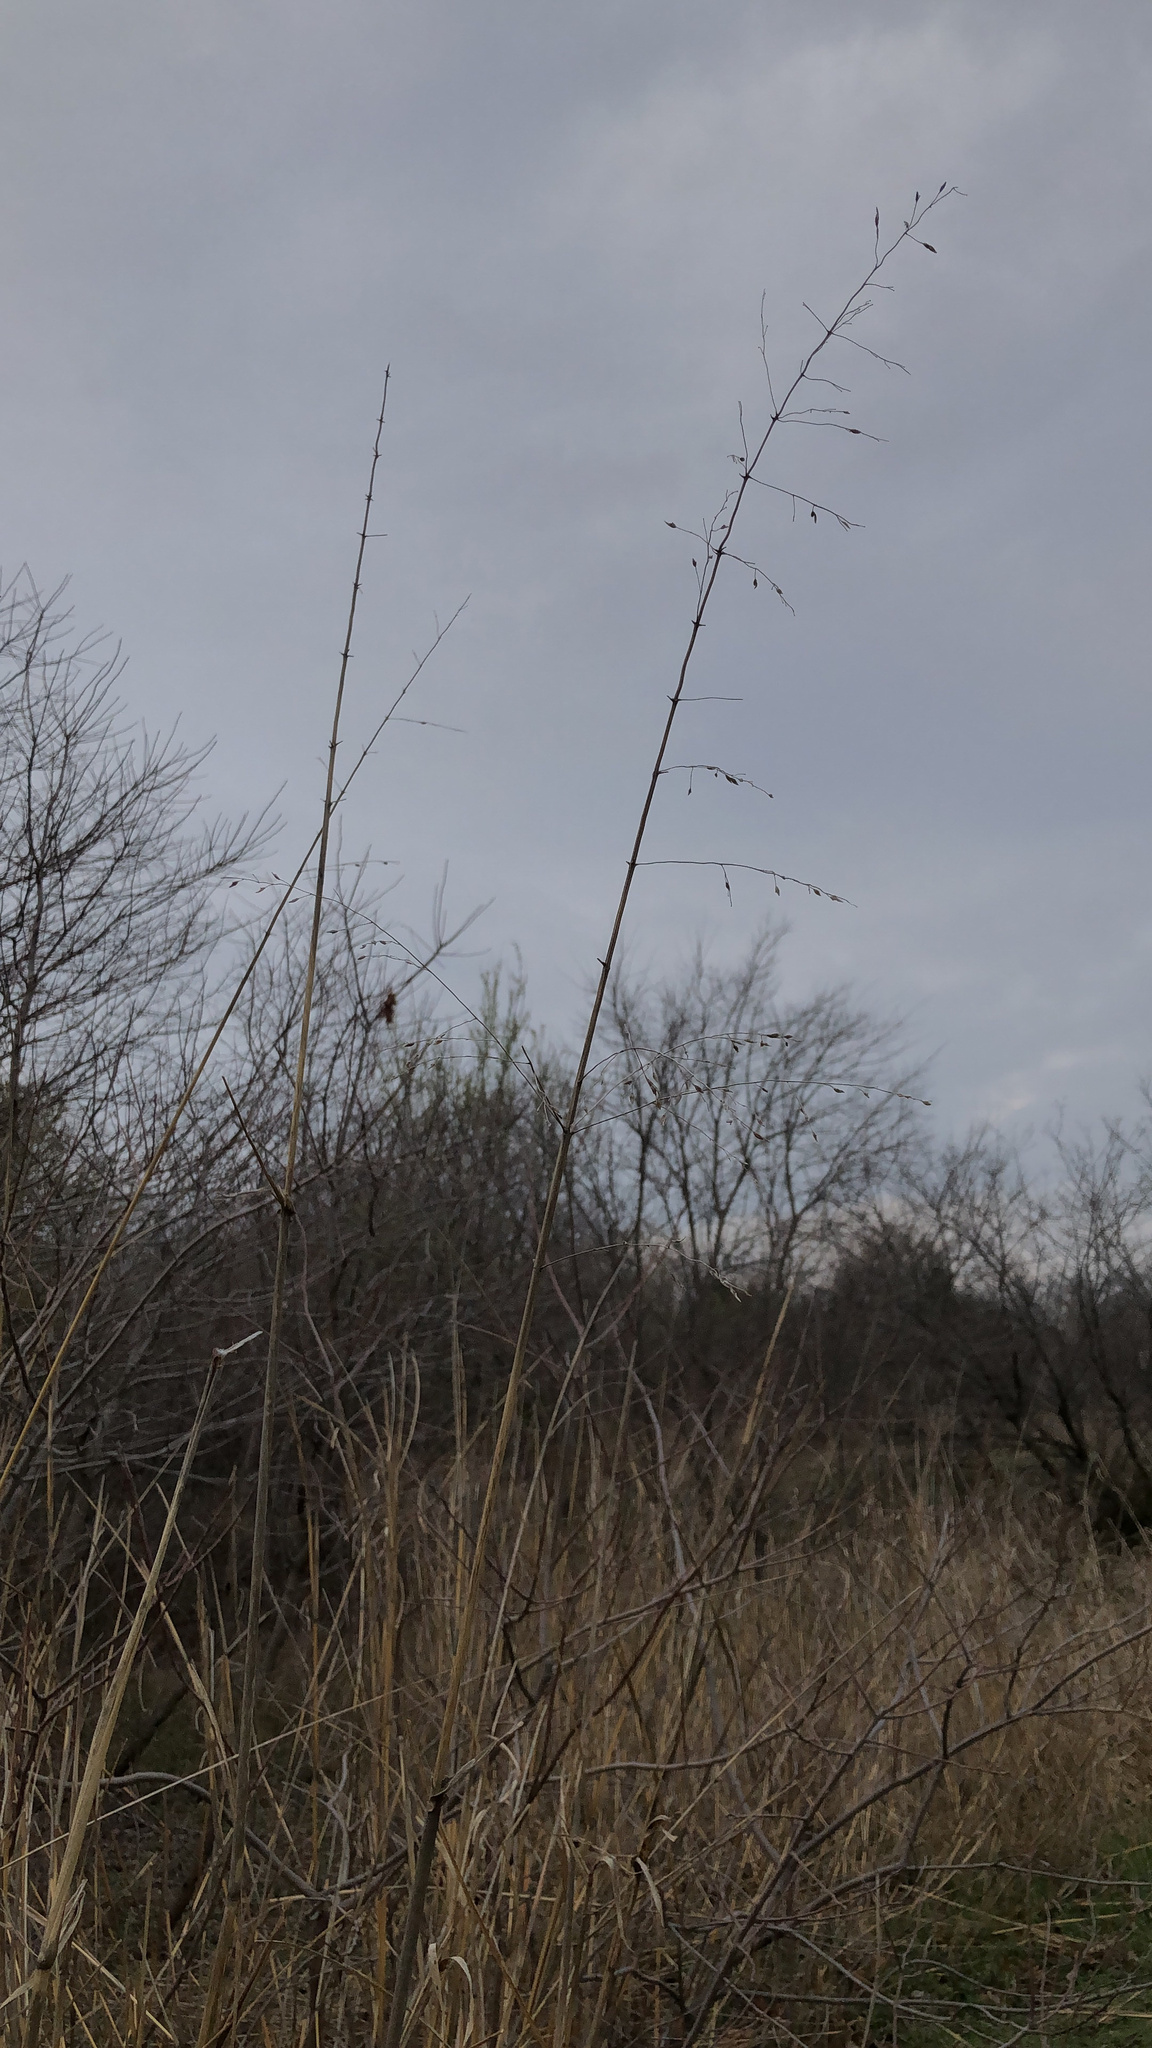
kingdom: Plantae
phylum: Tracheophyta
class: Liliopsida
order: Poales
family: Poaceae
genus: Sorghum
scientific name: Sorghum halepense
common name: Johnson-grass
